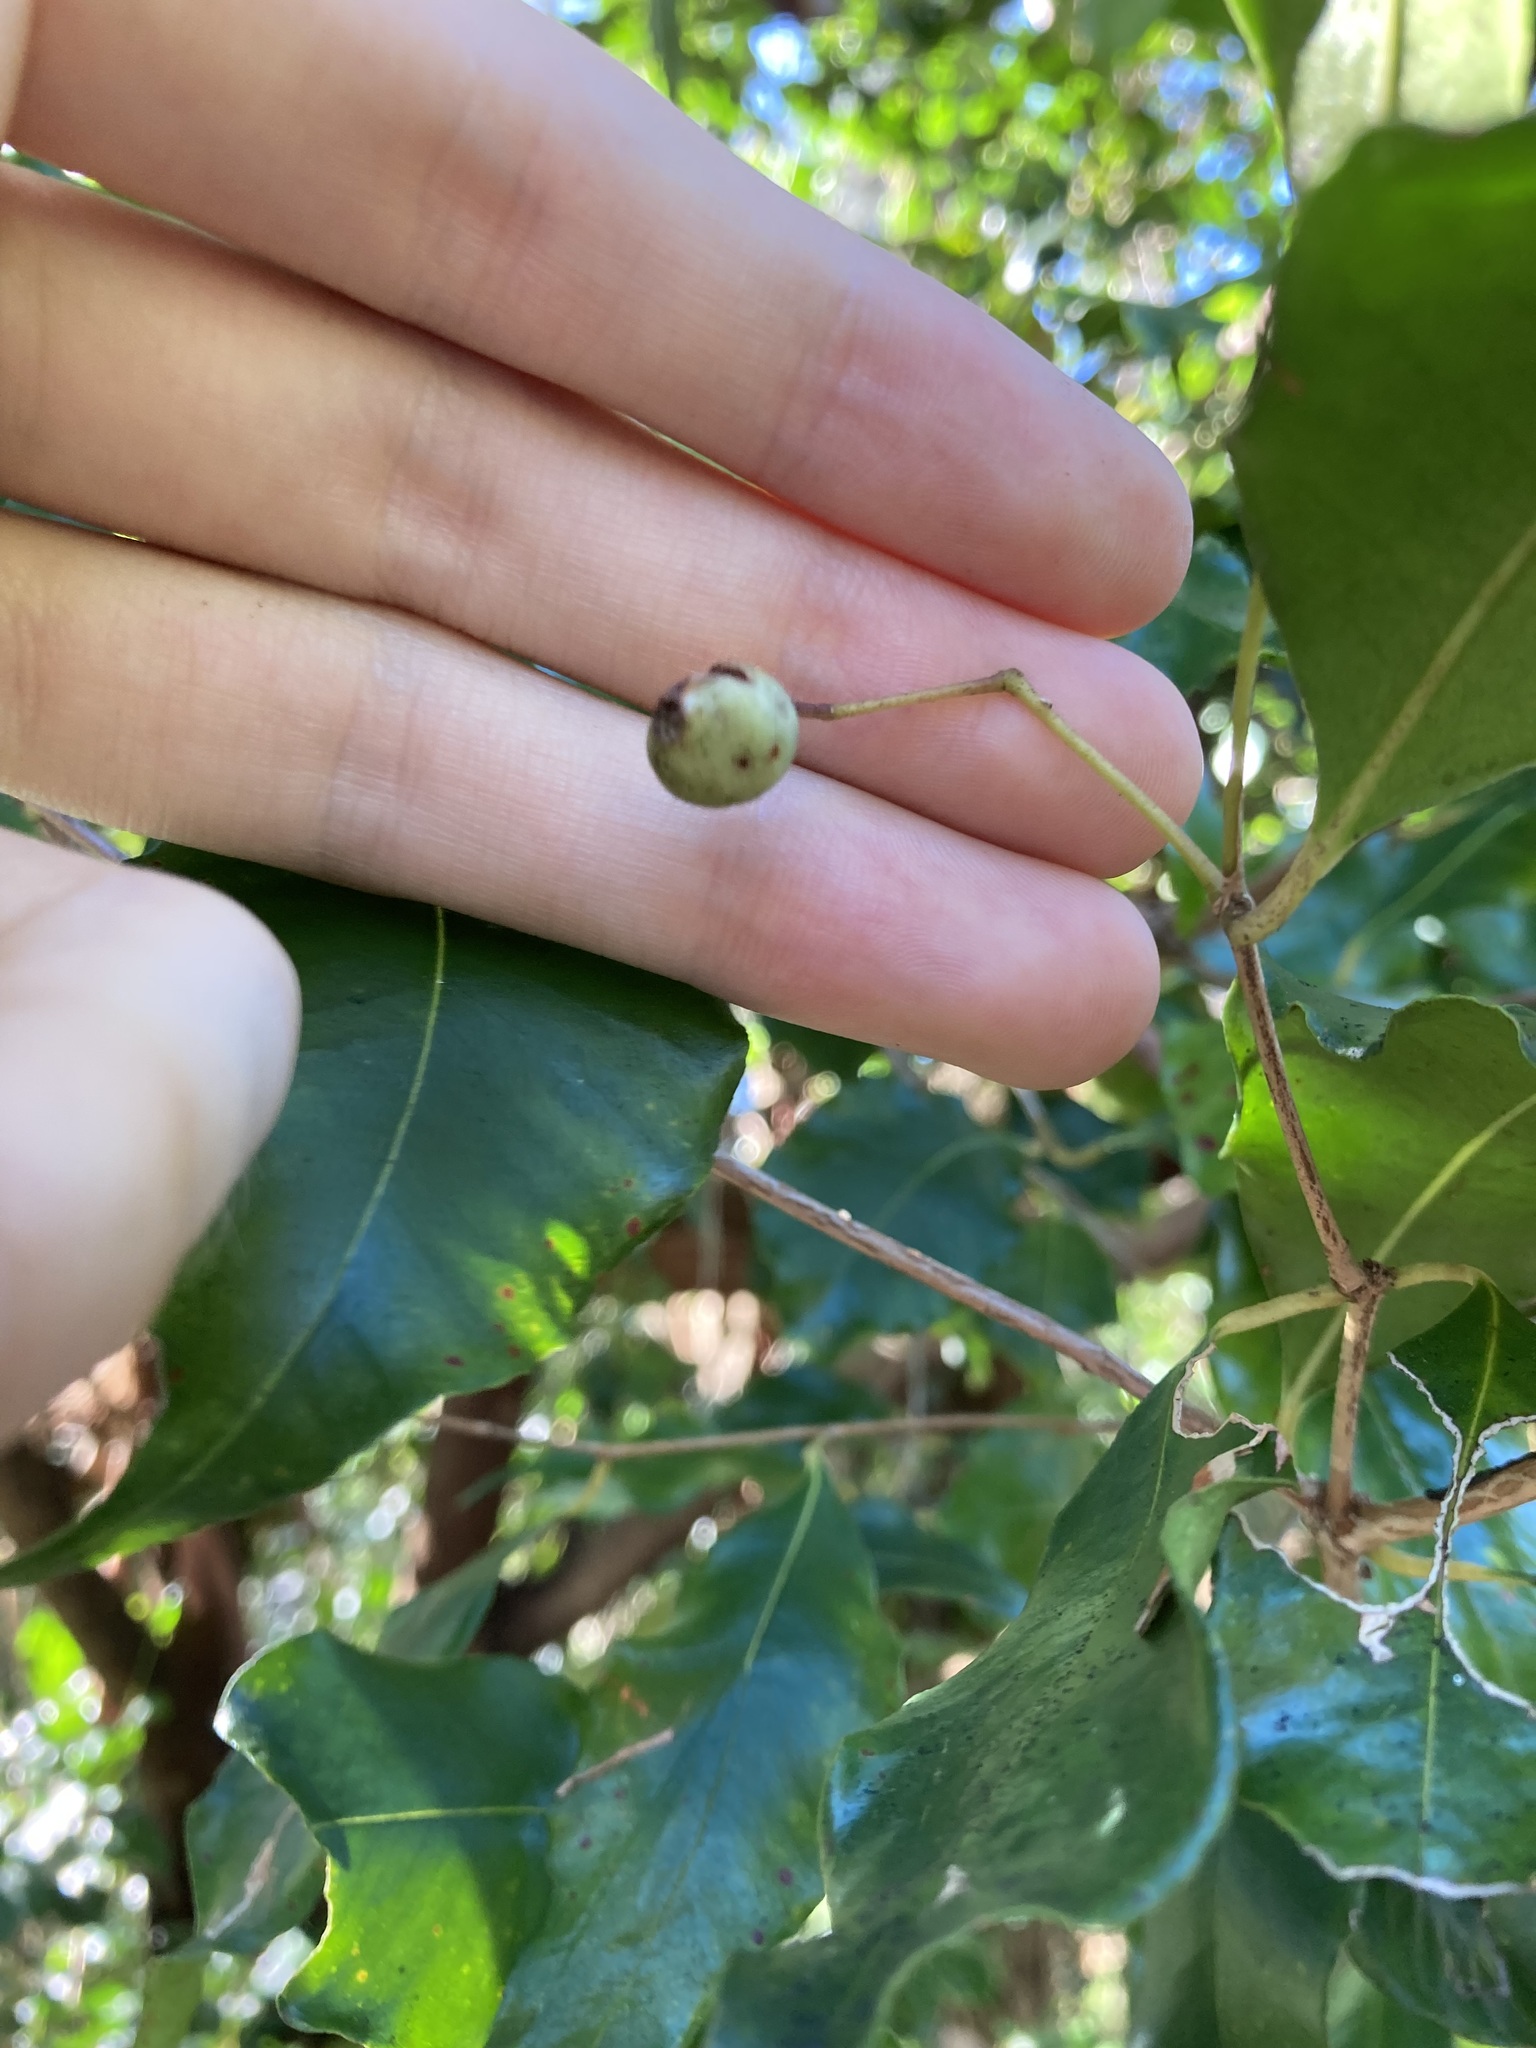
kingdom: Plantae
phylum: Tracheophyta
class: Magnoliopsida
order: Myrtales
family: Myrtaceae
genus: Syzygium
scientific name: Syzygium smithii
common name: Lilly-pilly
